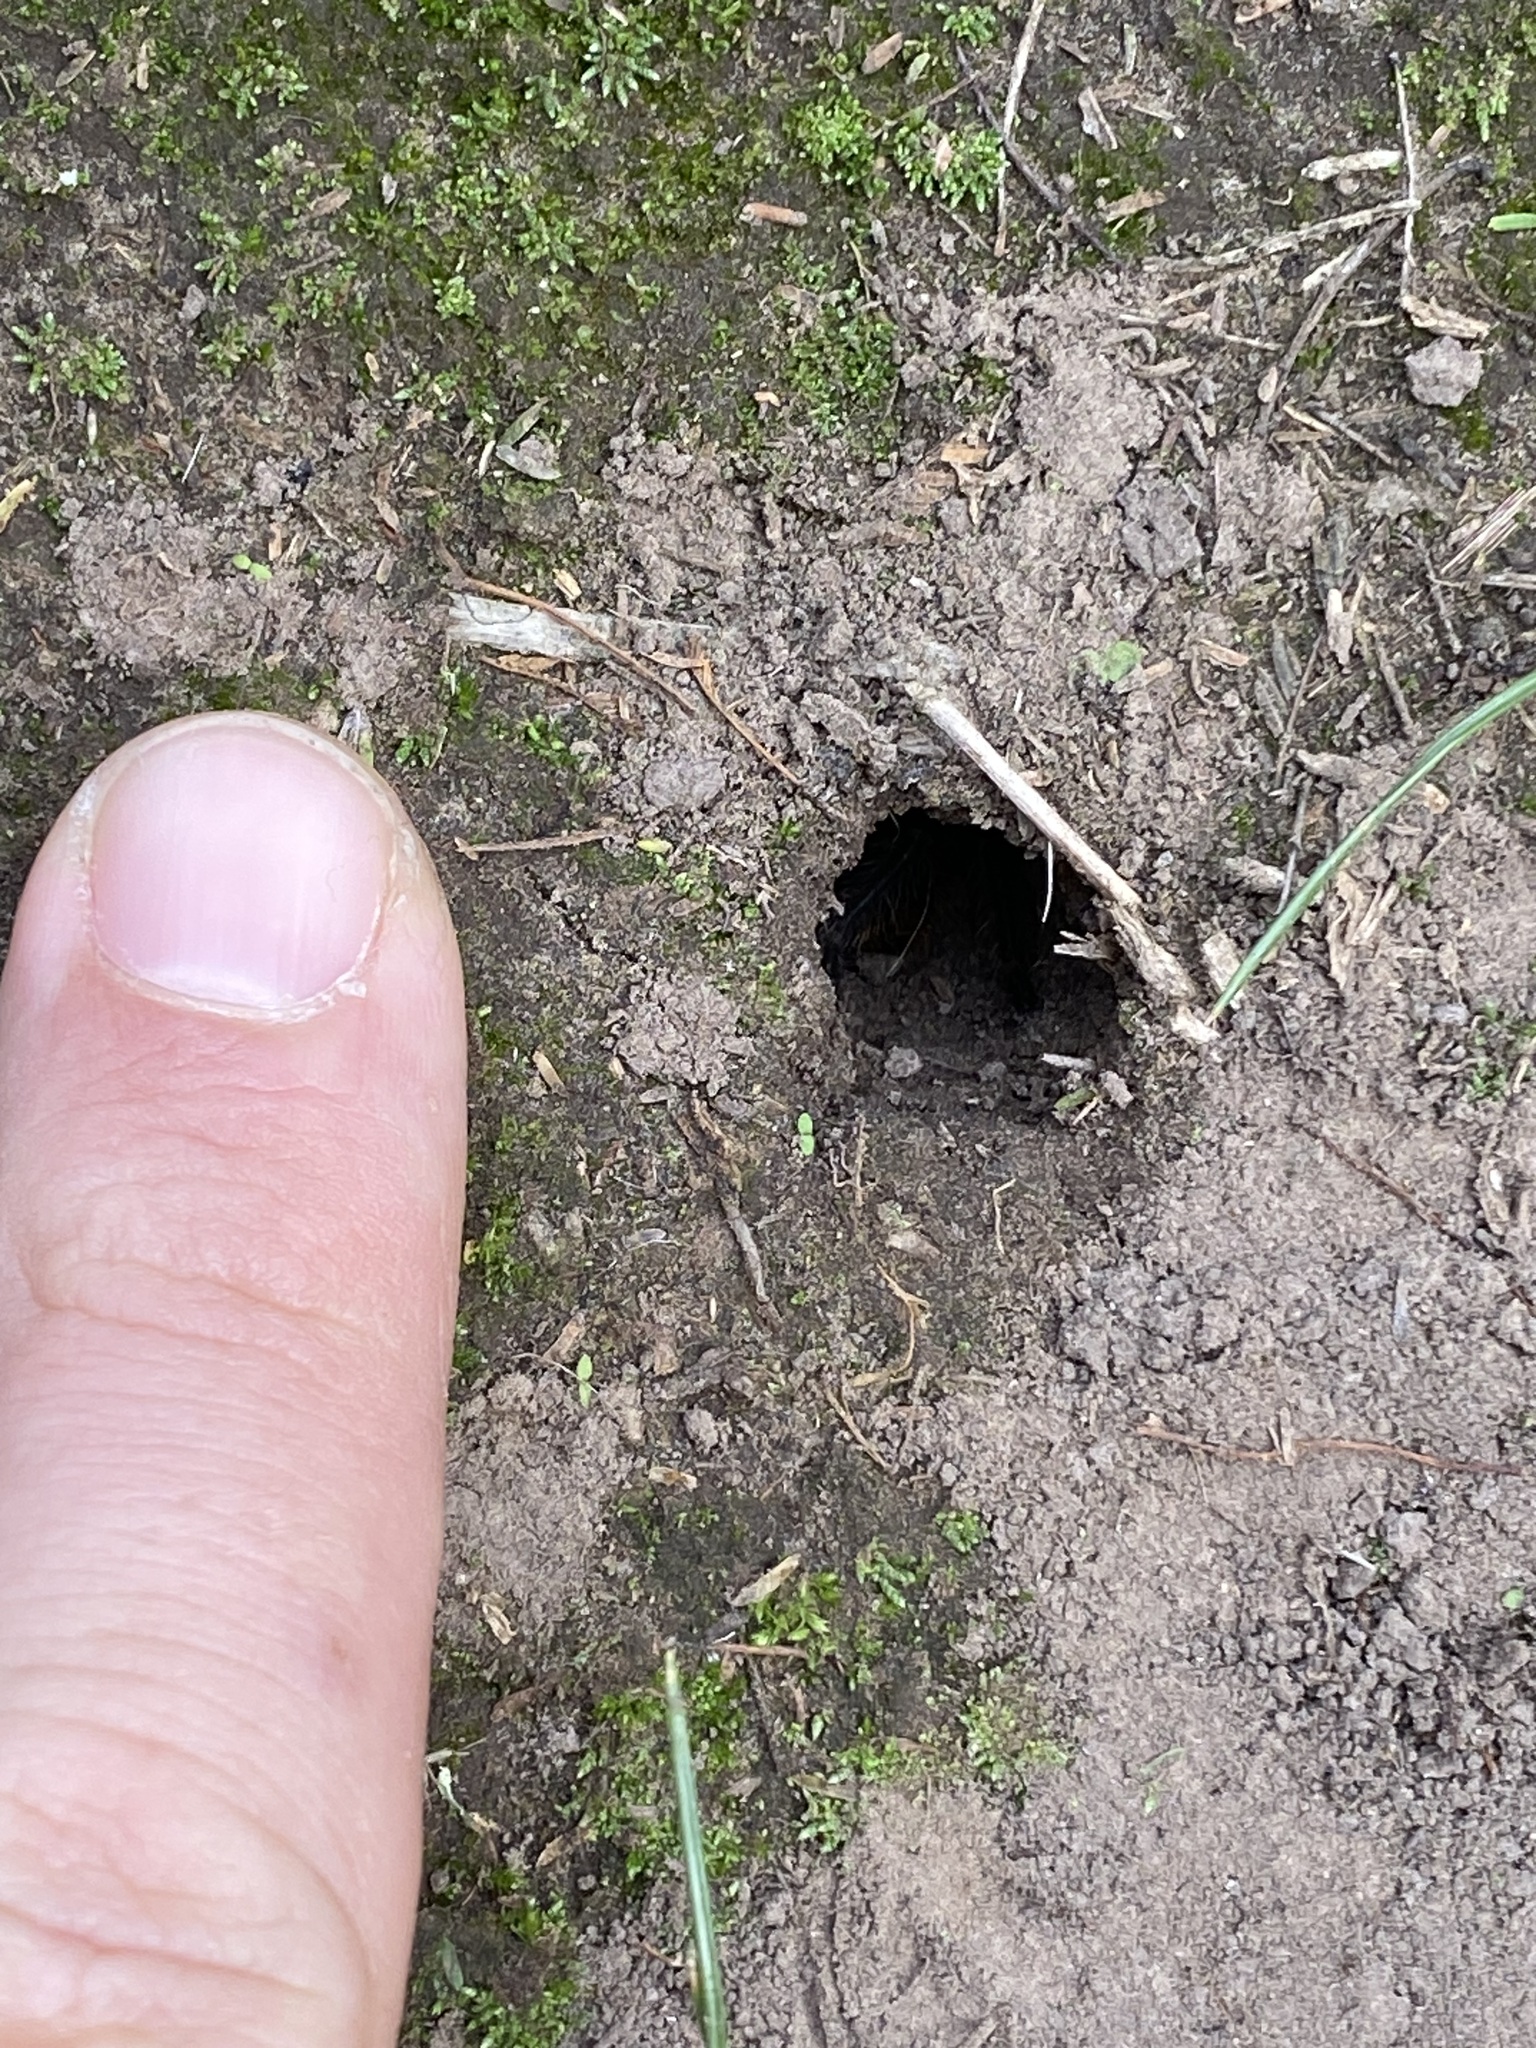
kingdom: Animalia
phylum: Arthropoda
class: Arachnida
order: Araneae
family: Theraphosidae
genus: Homoeomma
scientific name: Homoeomma uruguayense
